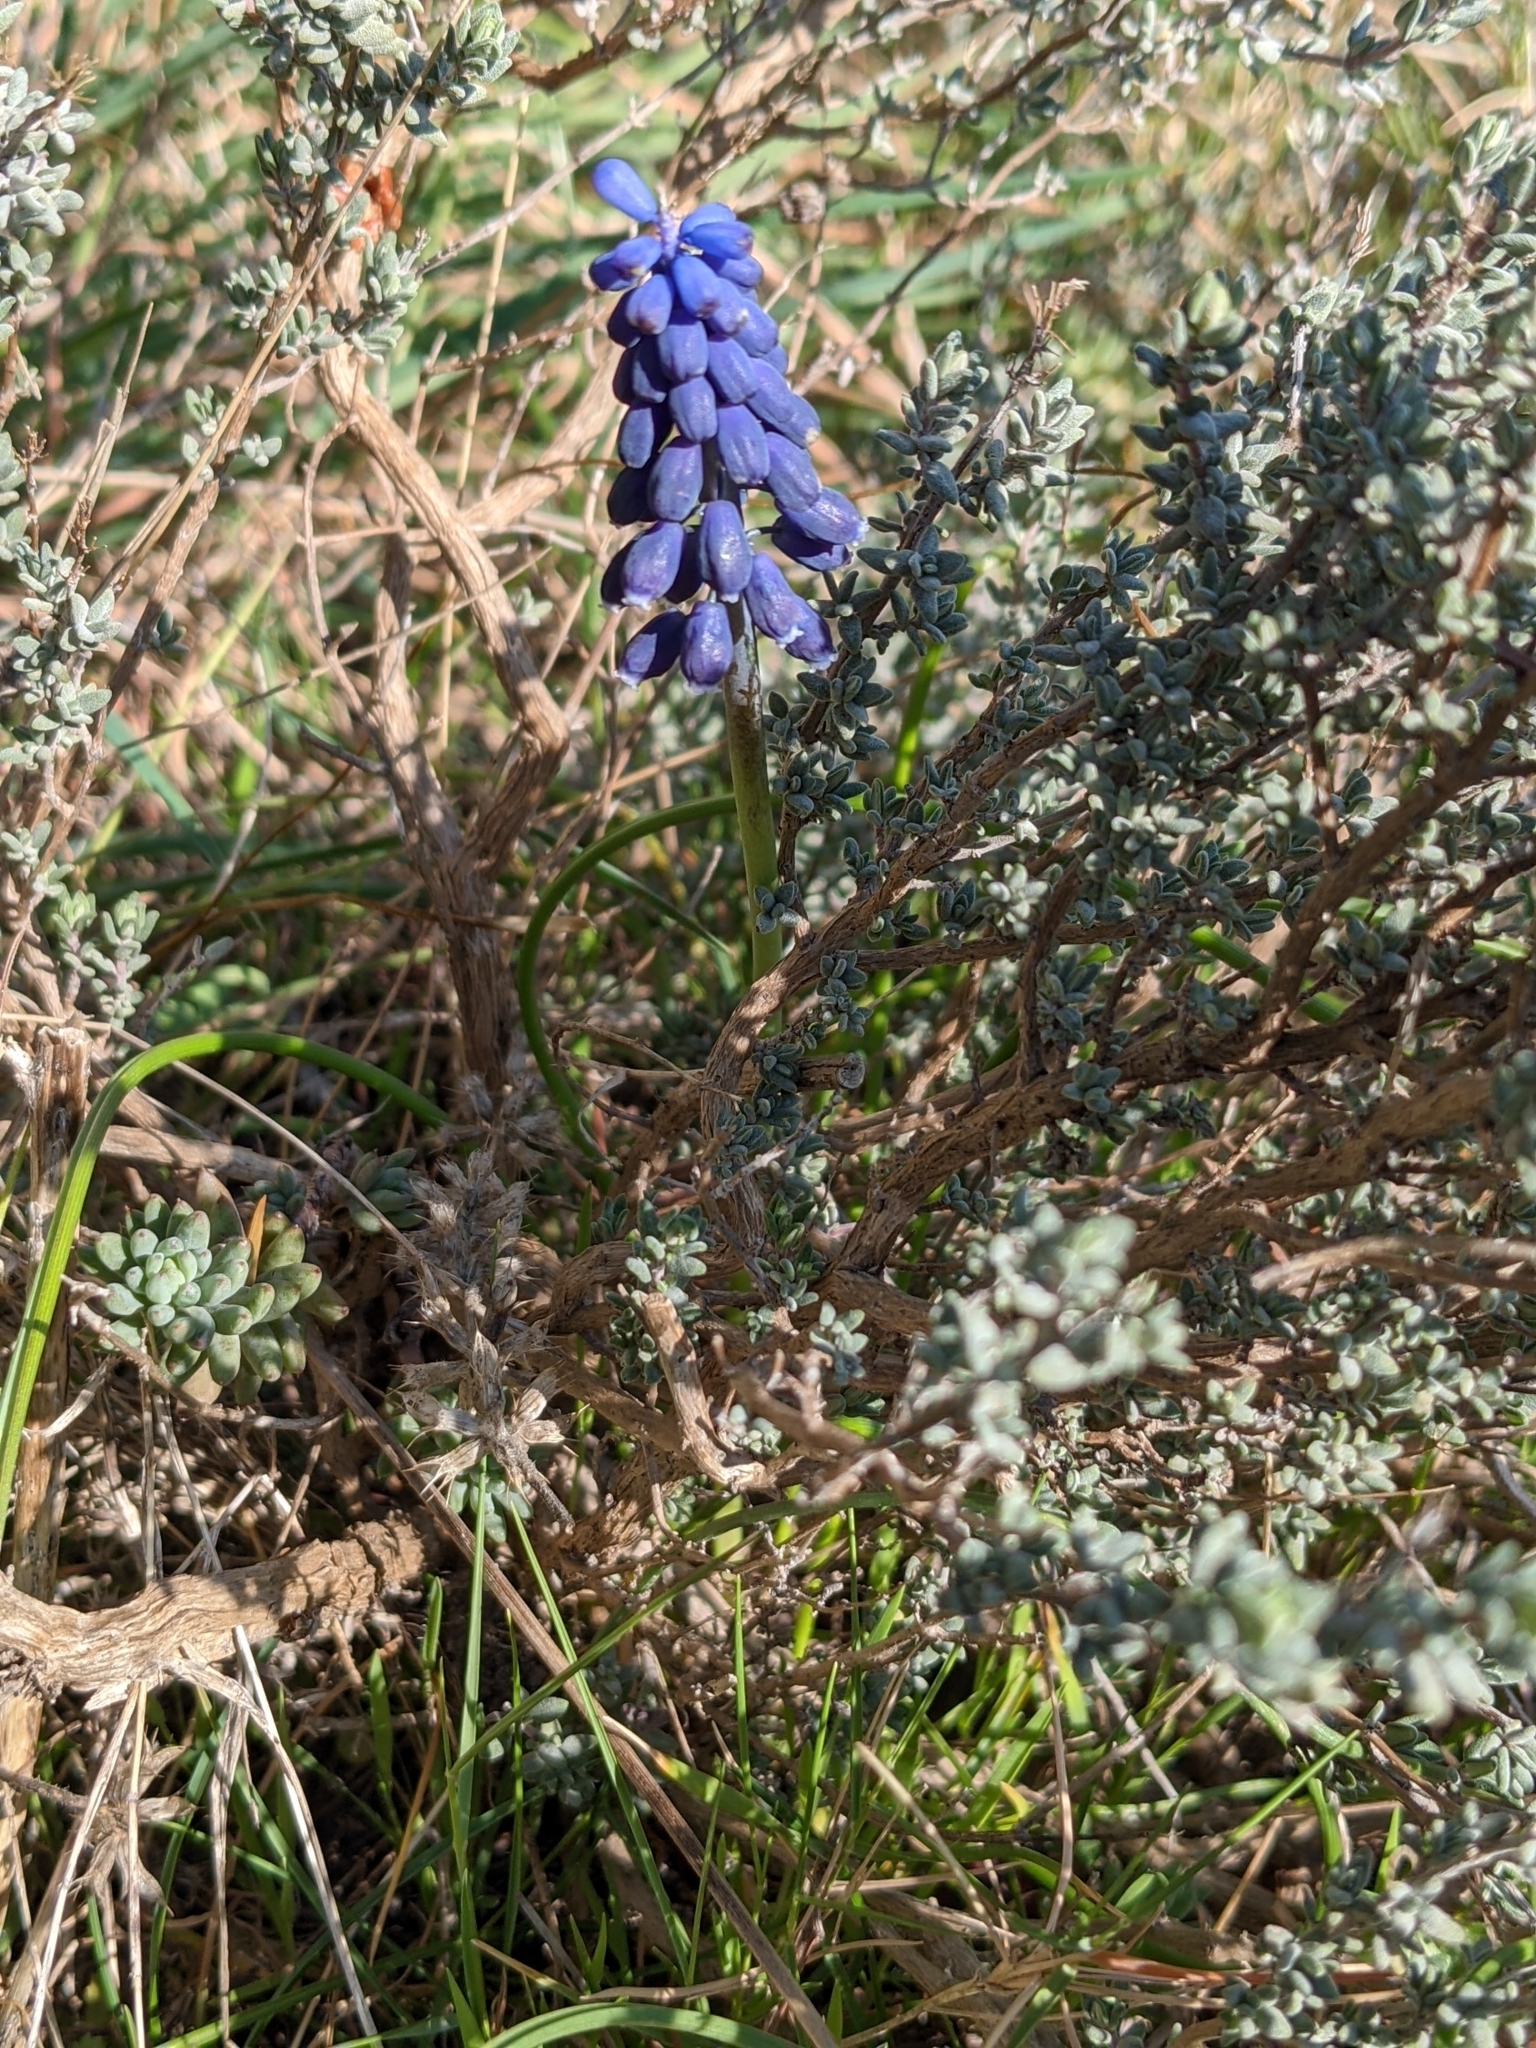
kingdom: Plantae
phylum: Tracheophyta
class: Liliopsida
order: Asparagales
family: Asparagaceae
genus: Muscari
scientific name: Muscari neglectum
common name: Grape-hyacinth
